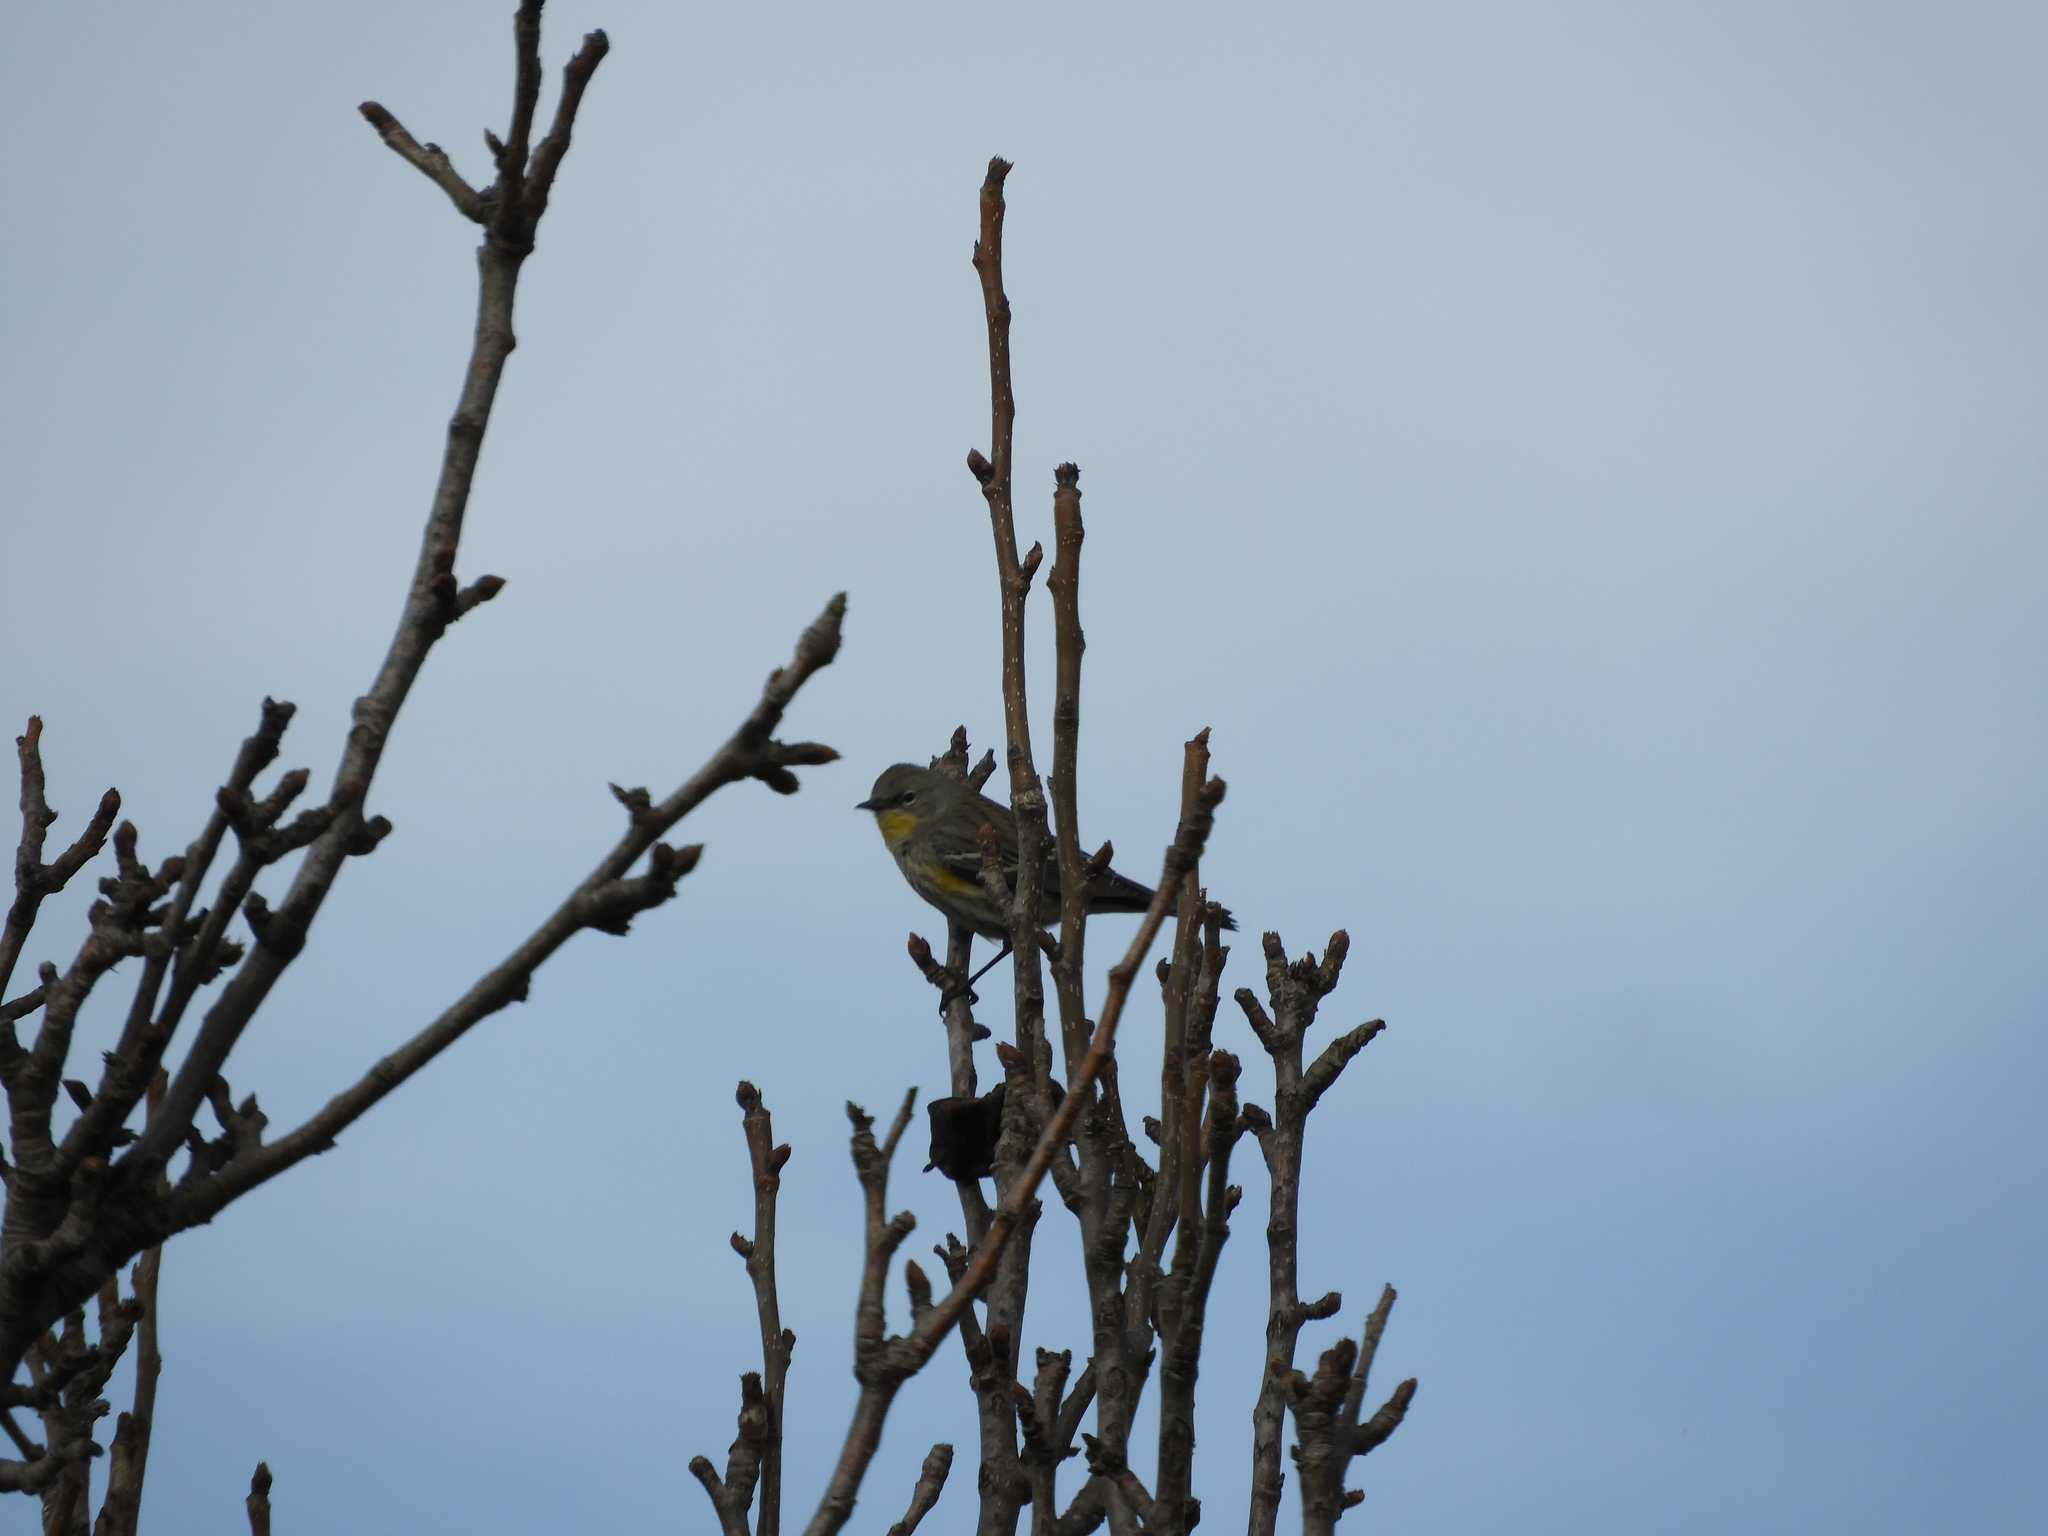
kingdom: Animalia
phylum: Chordata
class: Aves
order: Passeriformes
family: Parulidae
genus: Setophaga
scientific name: Setophaga coronata
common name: Myrtle warbler
